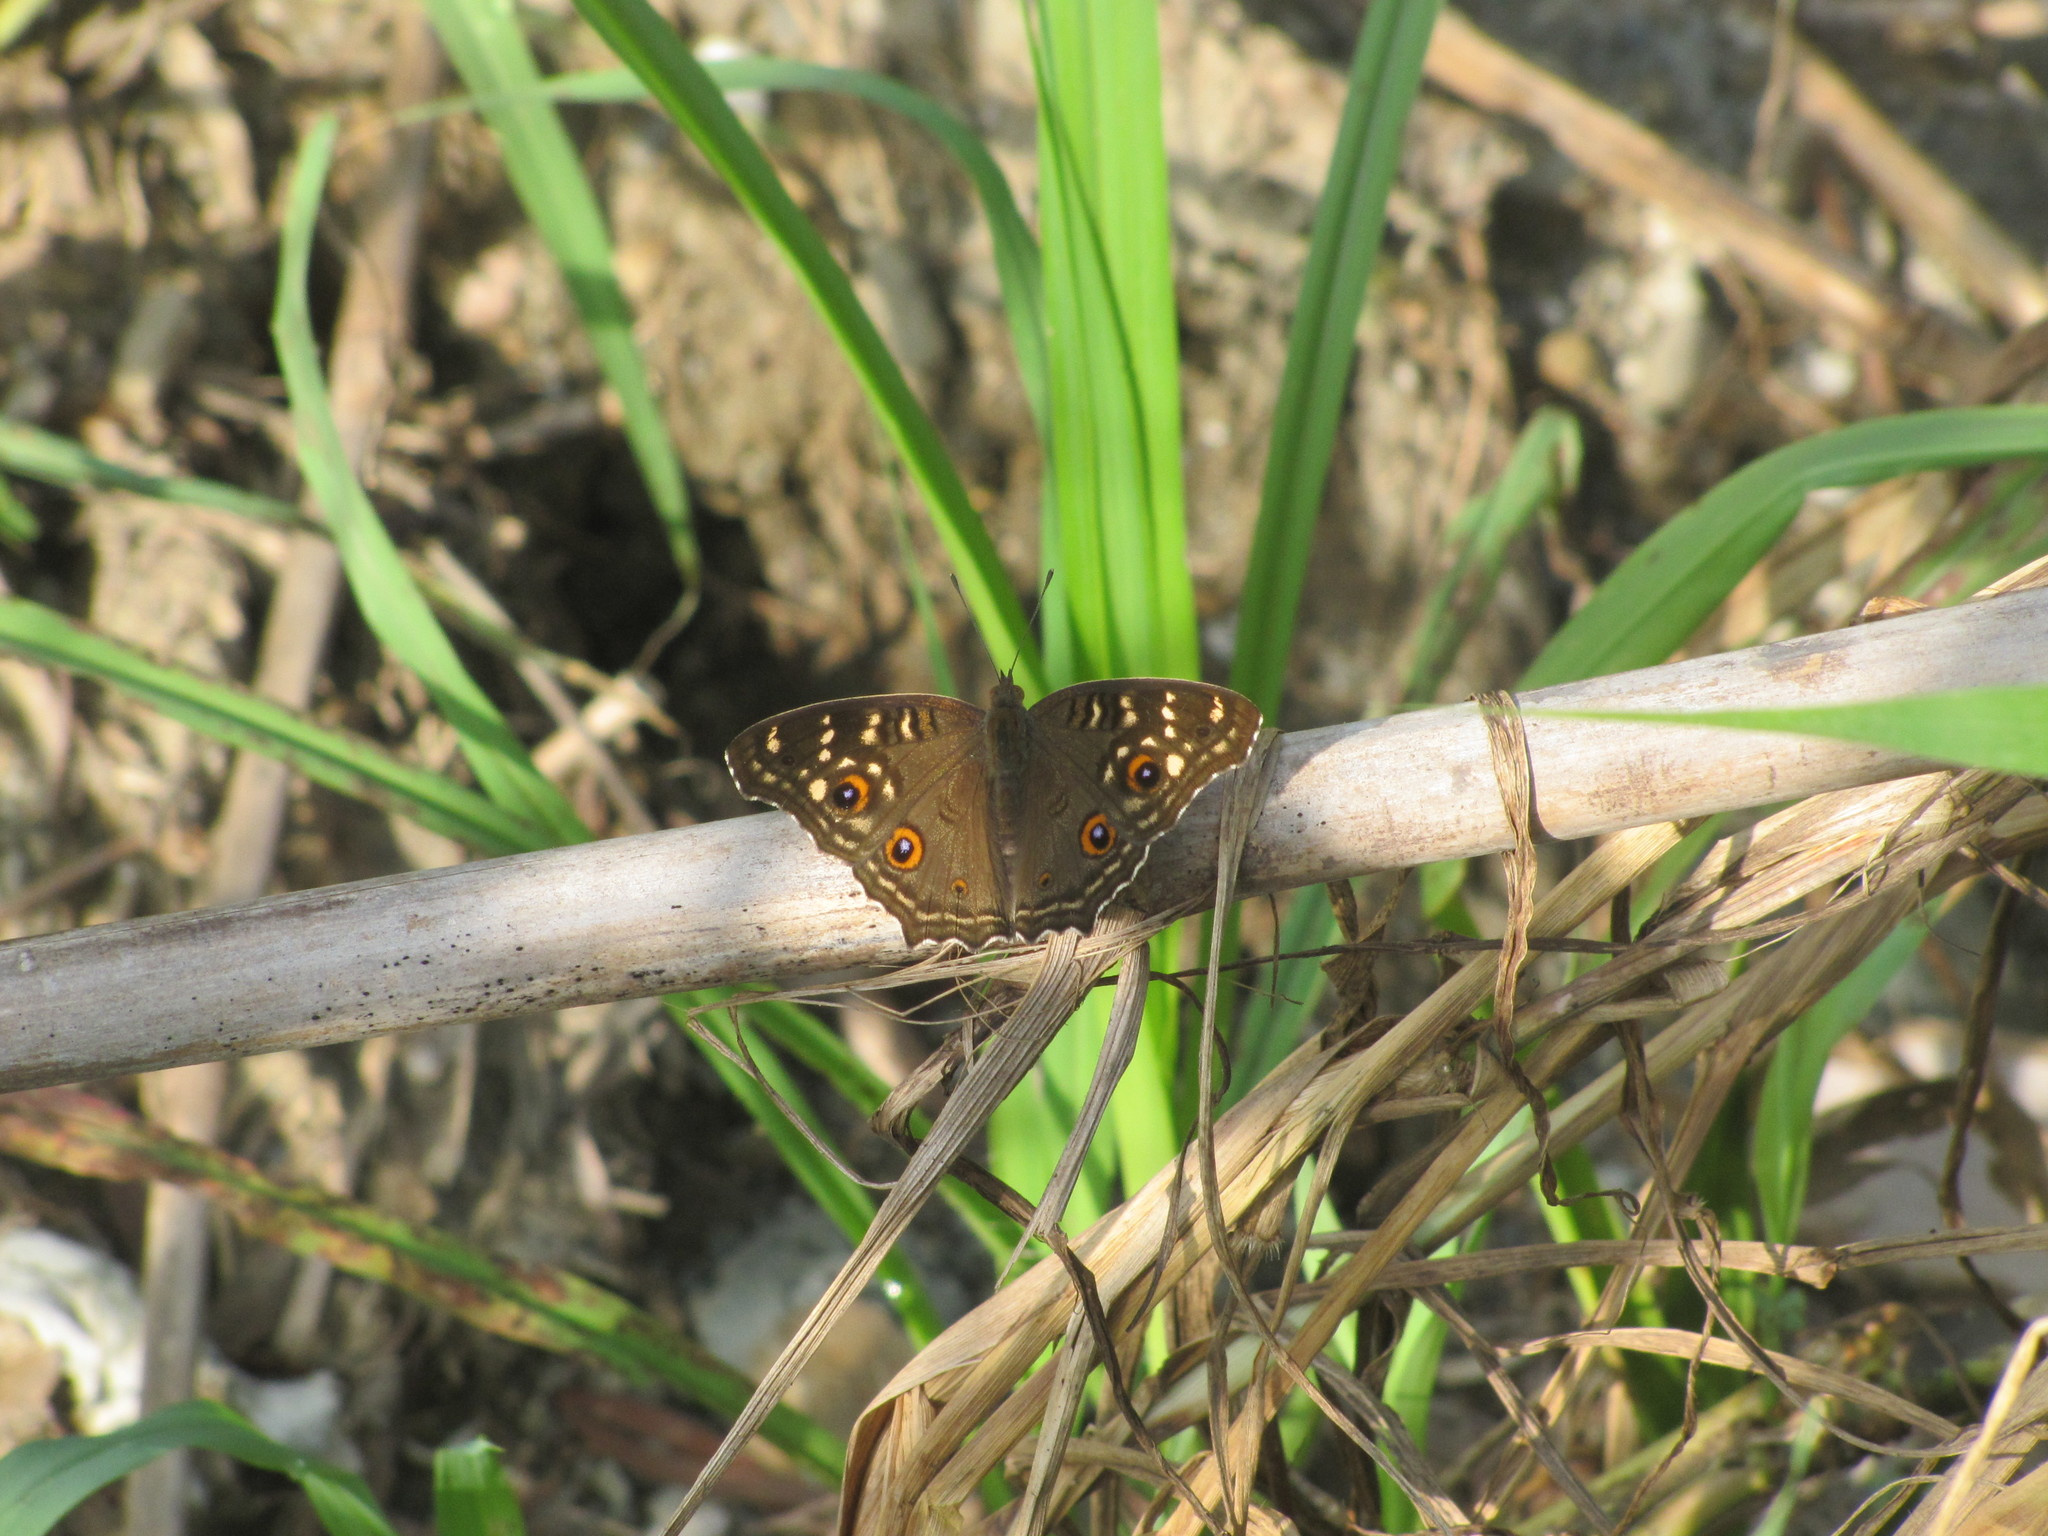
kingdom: Animalia
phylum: Arthropoda
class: Insecta
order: Lepidoptera
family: Nymphalidae
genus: Junonia
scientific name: Junonia lemonias
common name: Lemon pansy
